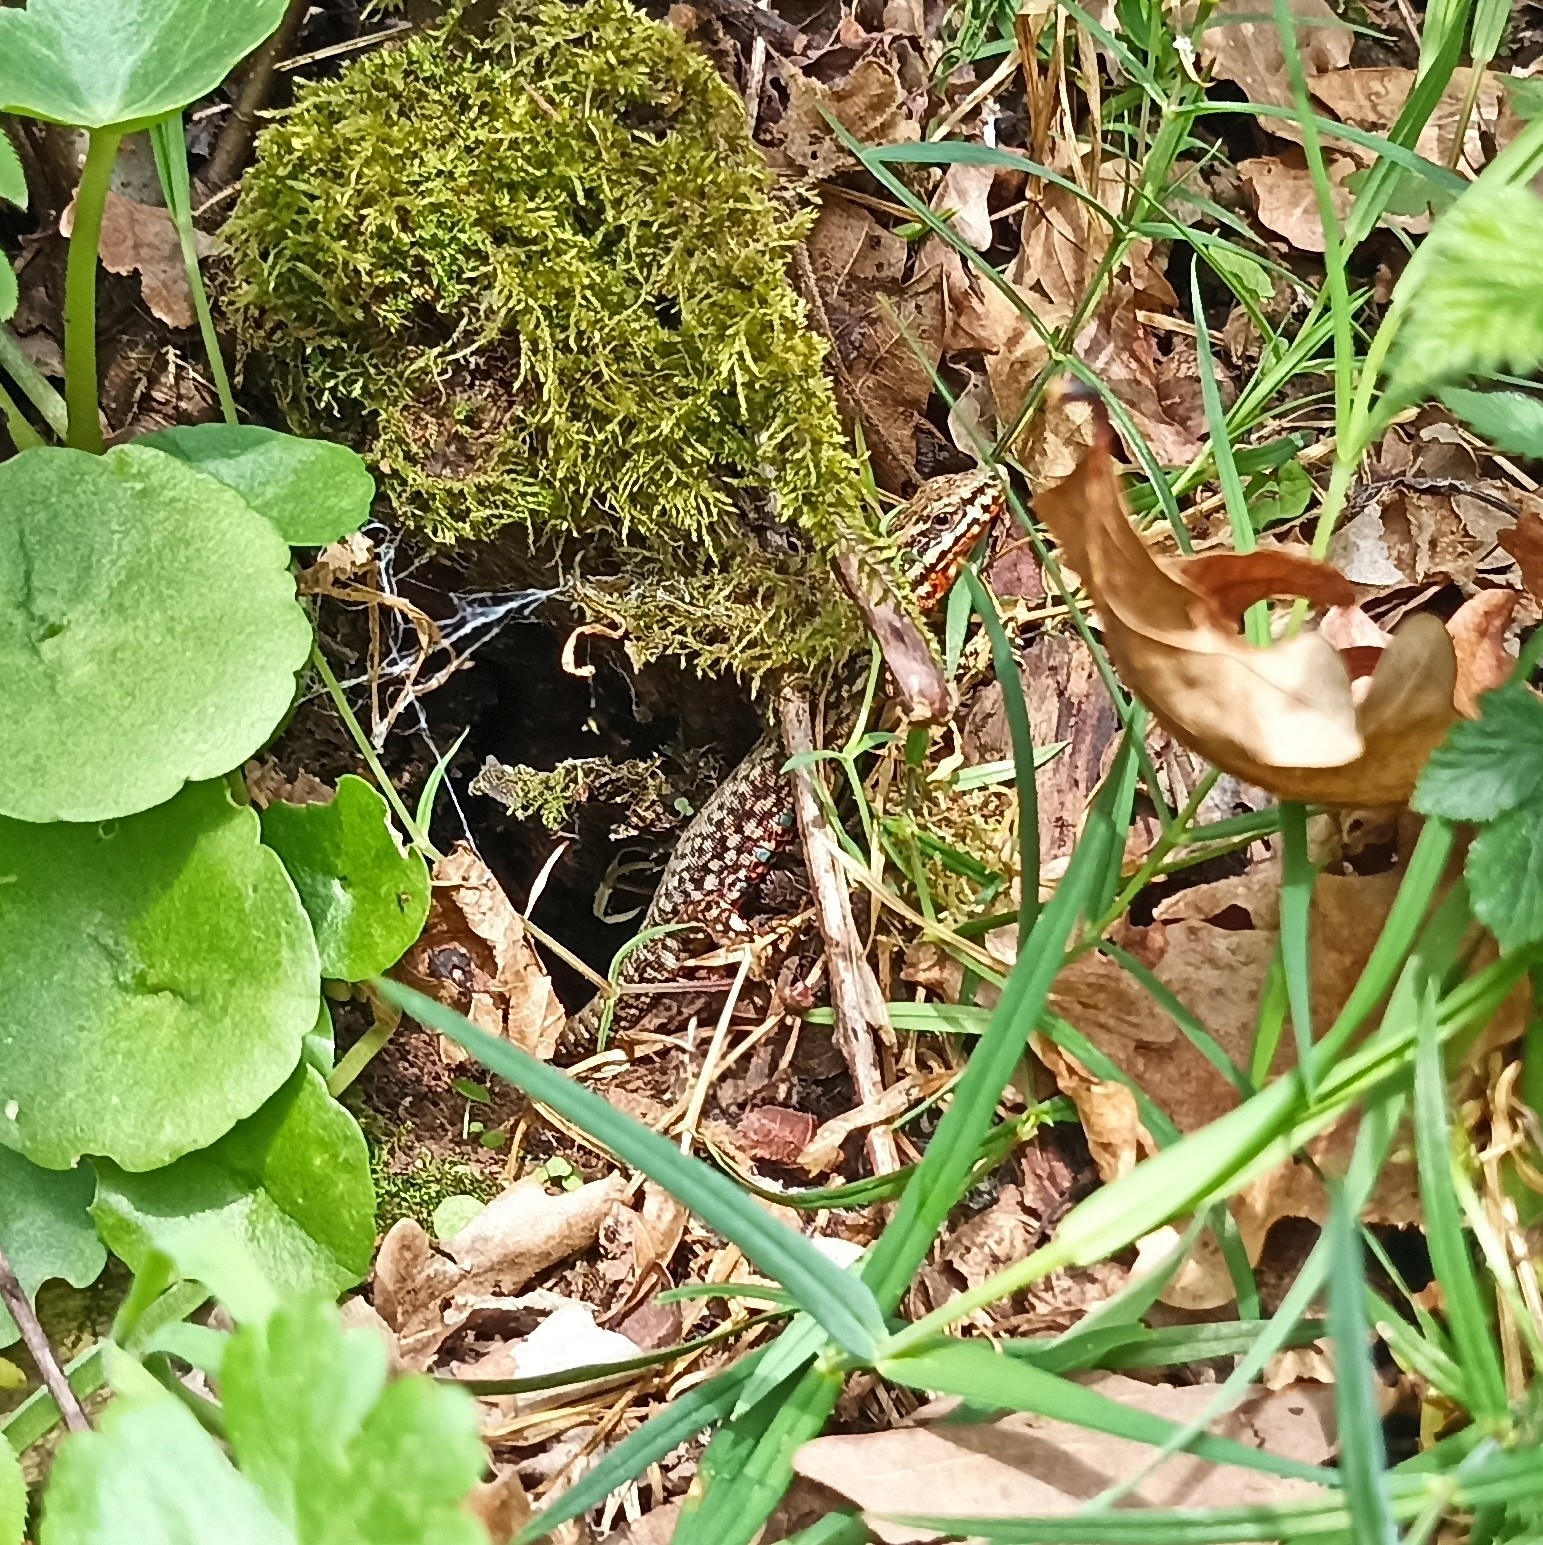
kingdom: Animalia
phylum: Chordata
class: Squamata
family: Lacertidae
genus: Podarcis
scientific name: Podarcis muralis
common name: Common wall lizard
